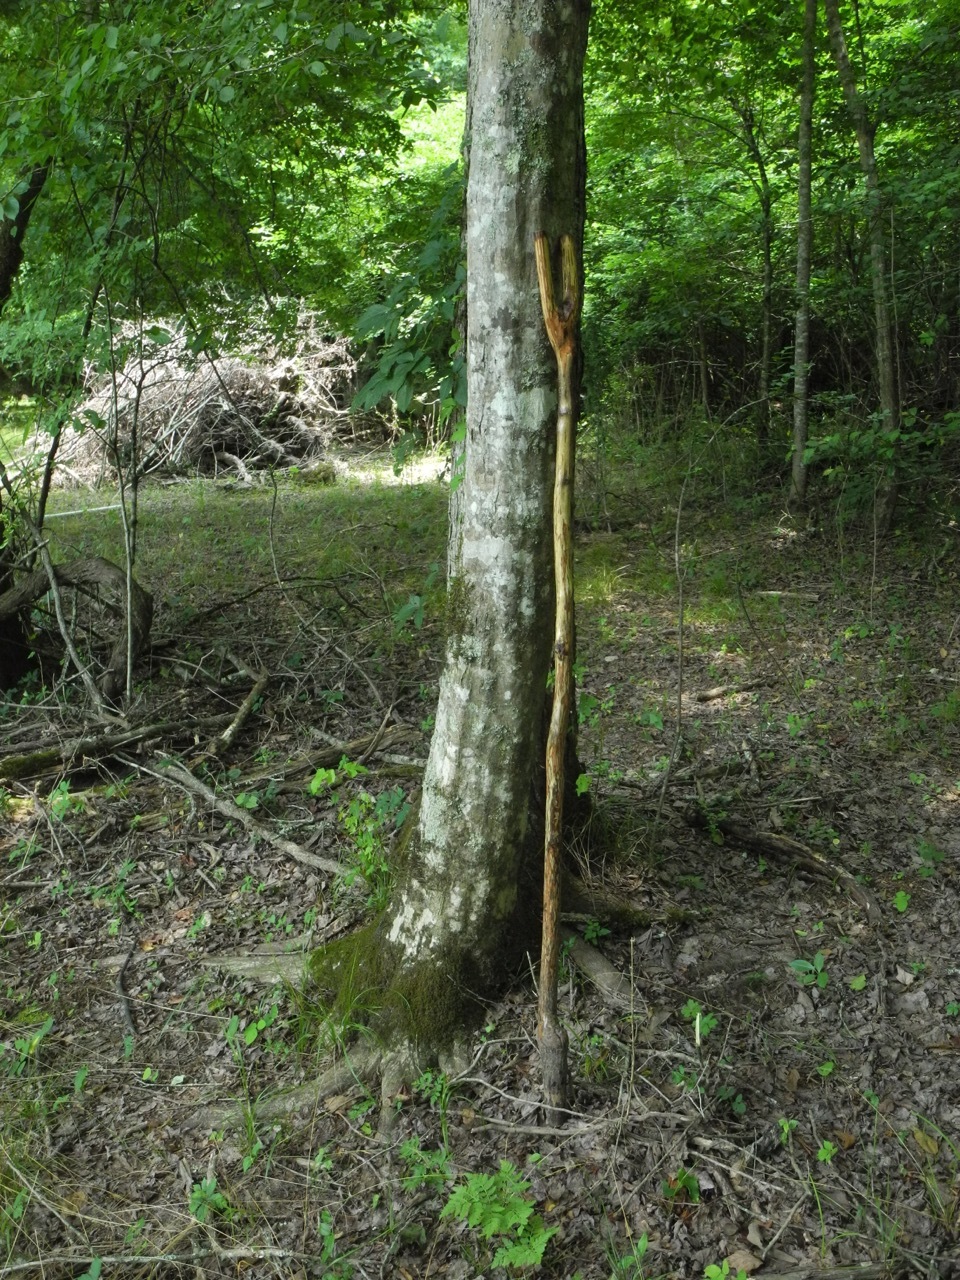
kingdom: Plantae
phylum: Tracheophyta
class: Magnoliopsida
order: Fagales
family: Betulaceae
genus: Carpinus
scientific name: Carpinus caroliniana
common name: American hornbeam
